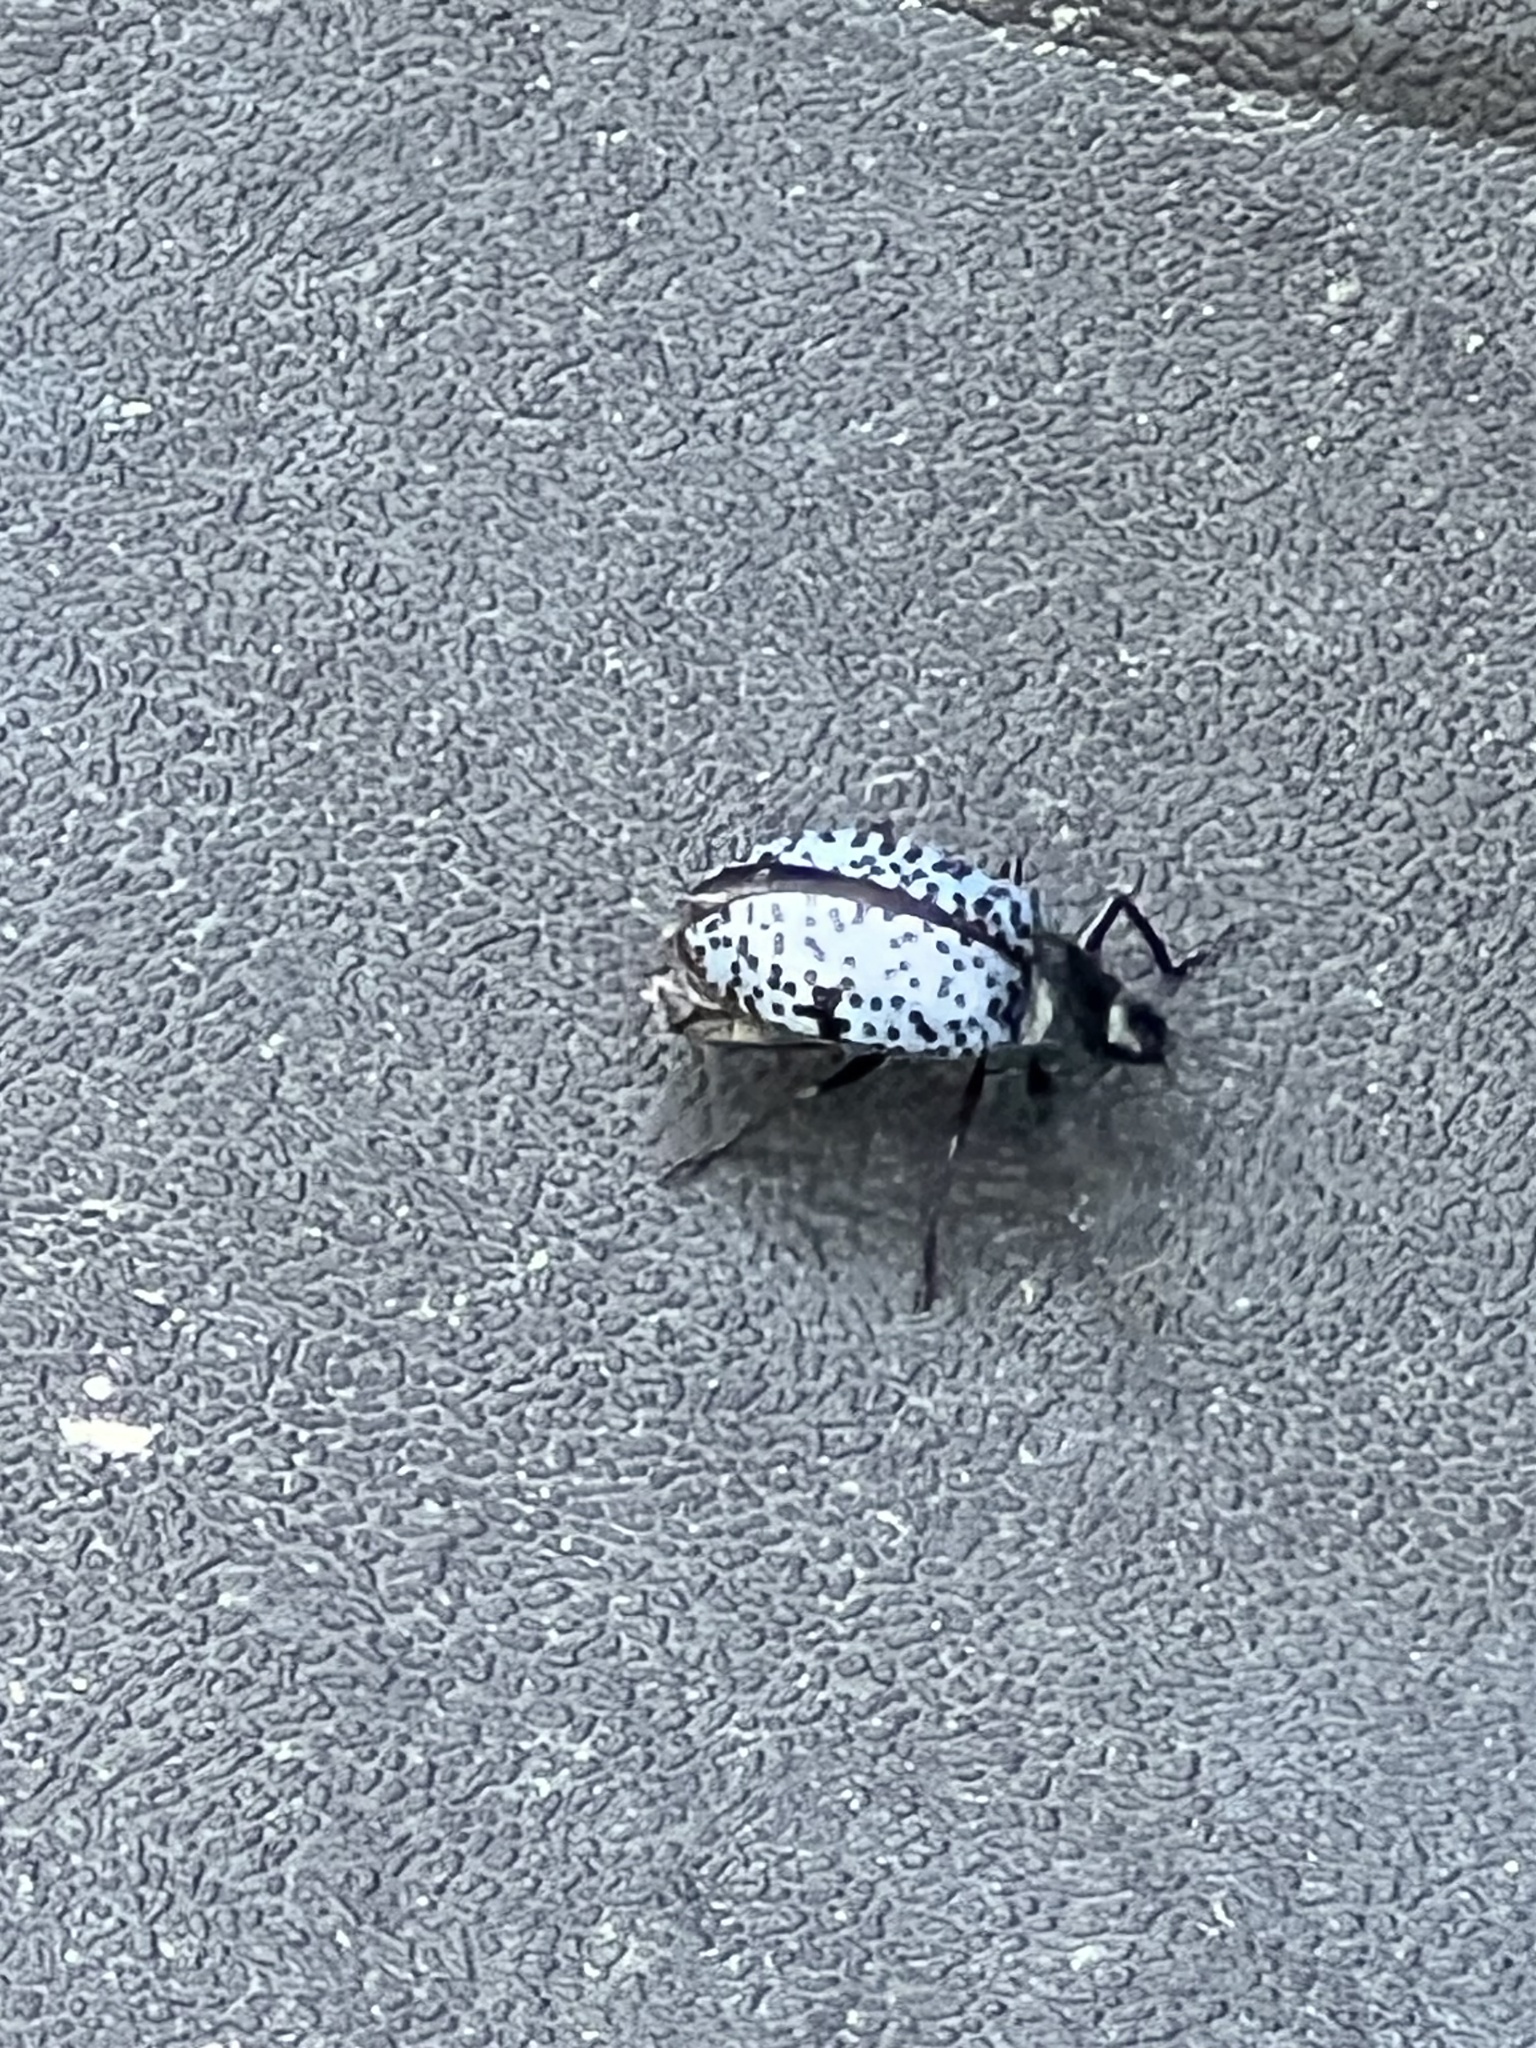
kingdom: Animalia
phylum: Arthropoda
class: Insecta
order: Coleoptera
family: Erotylidae
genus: Gibbifer
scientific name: Gibbifer californicus
